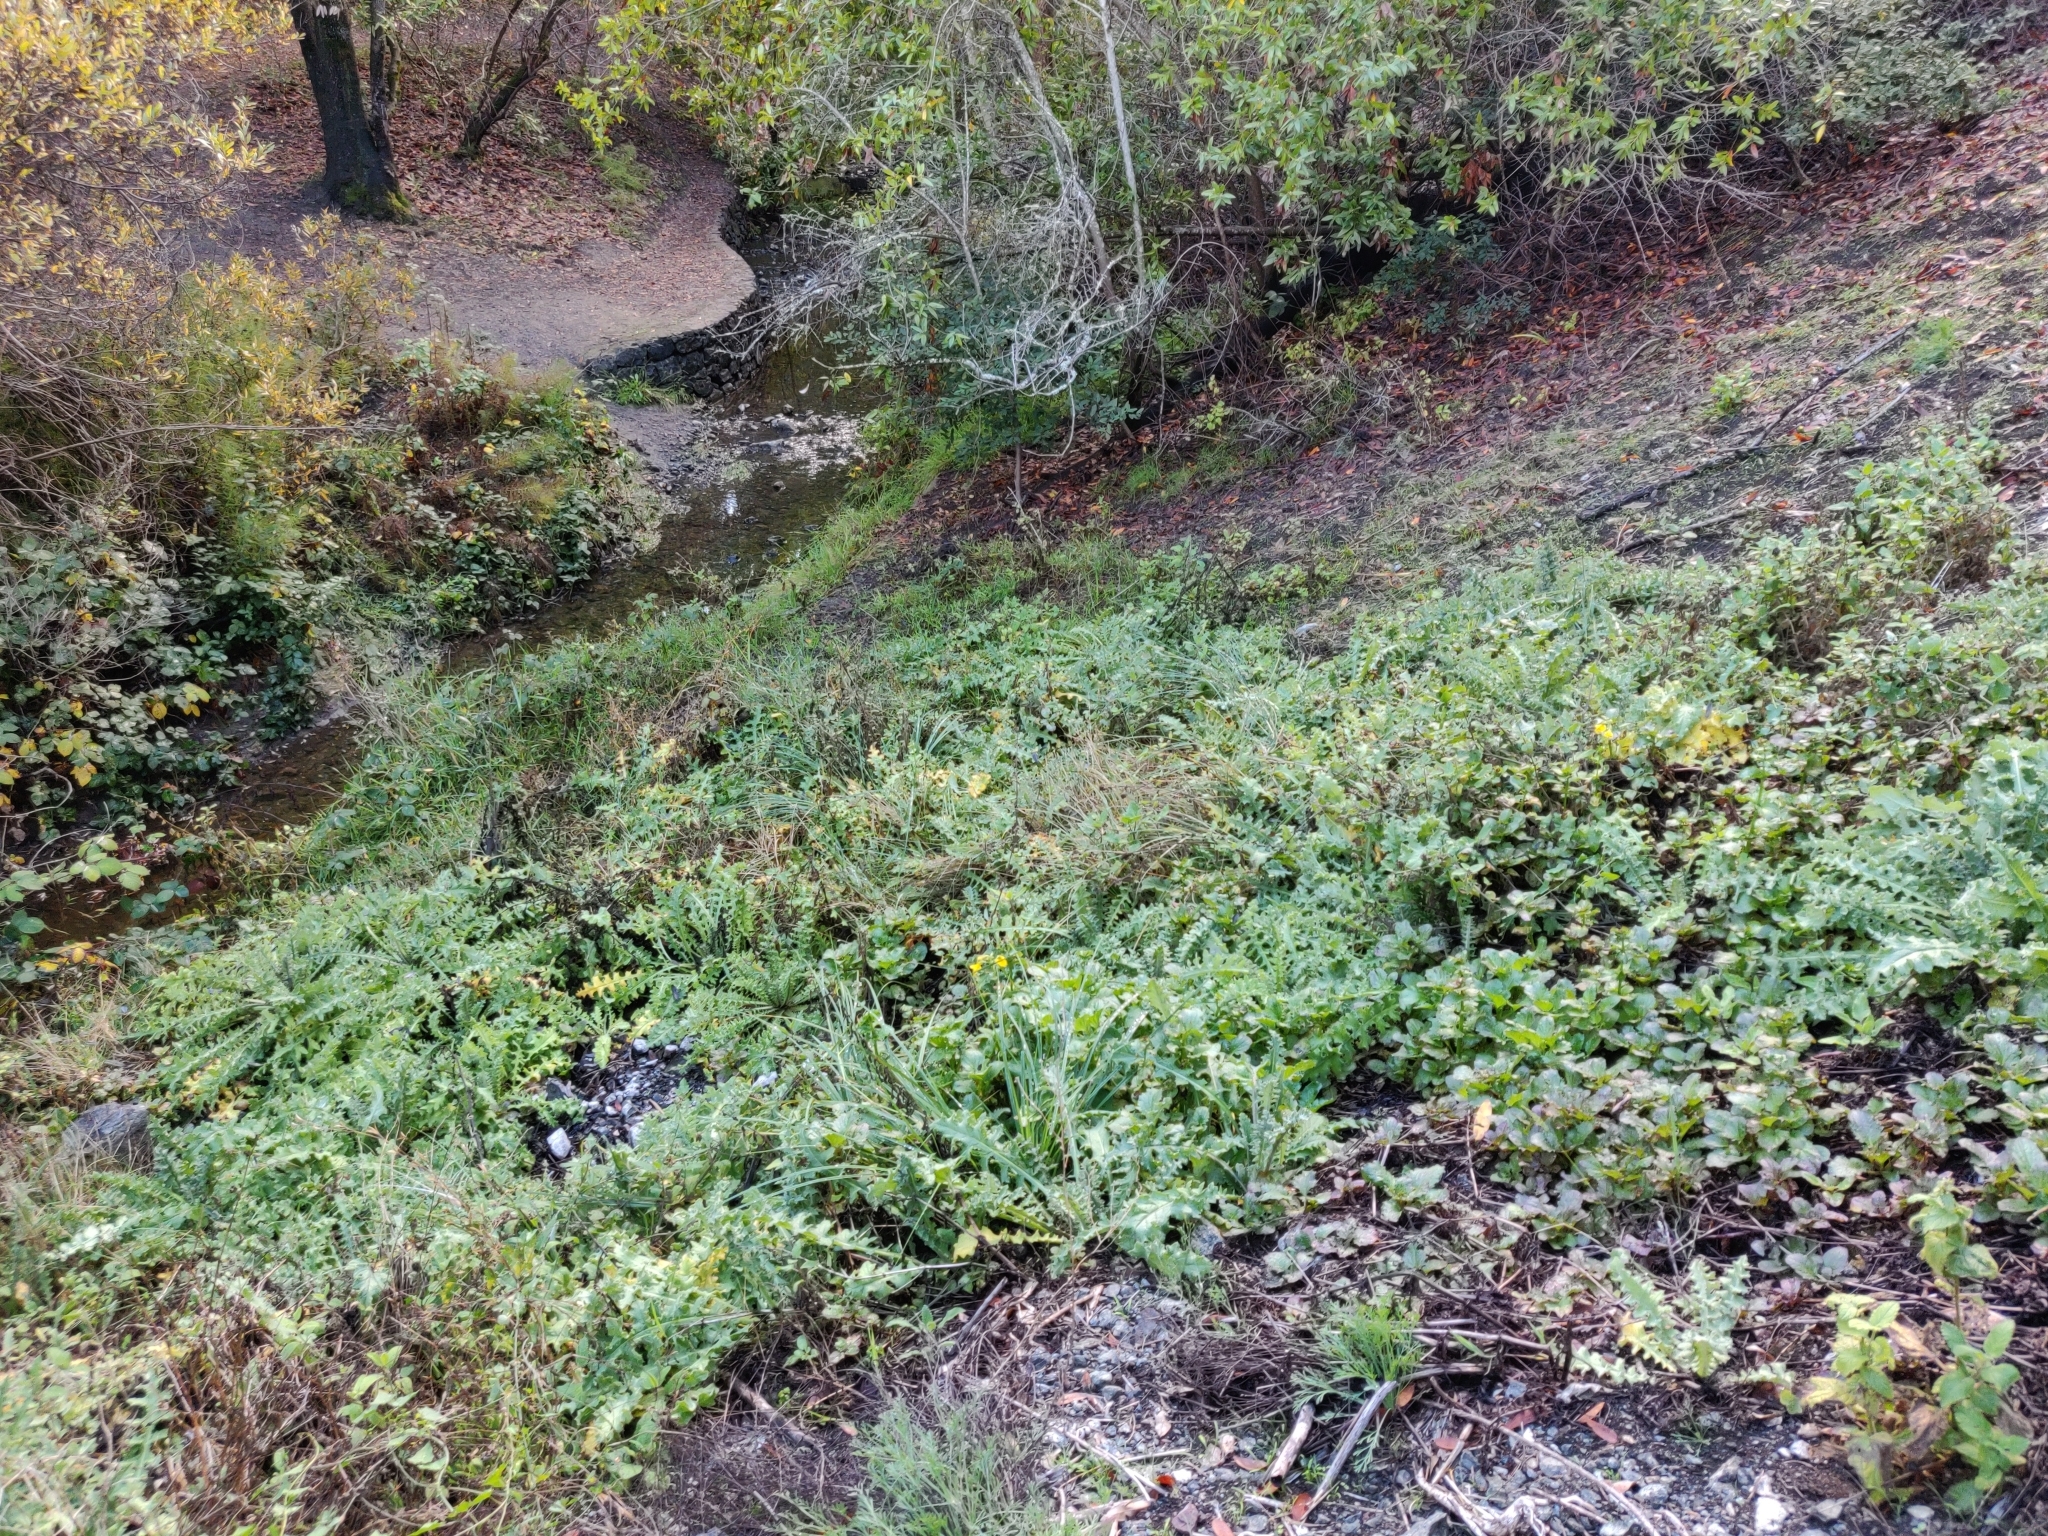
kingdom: Plantae
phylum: Tracheophyta
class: Magnoliopsida
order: Asterales
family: Asteraceae
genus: Cirsium
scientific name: Cirsium fontinale
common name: Fountain thistle
